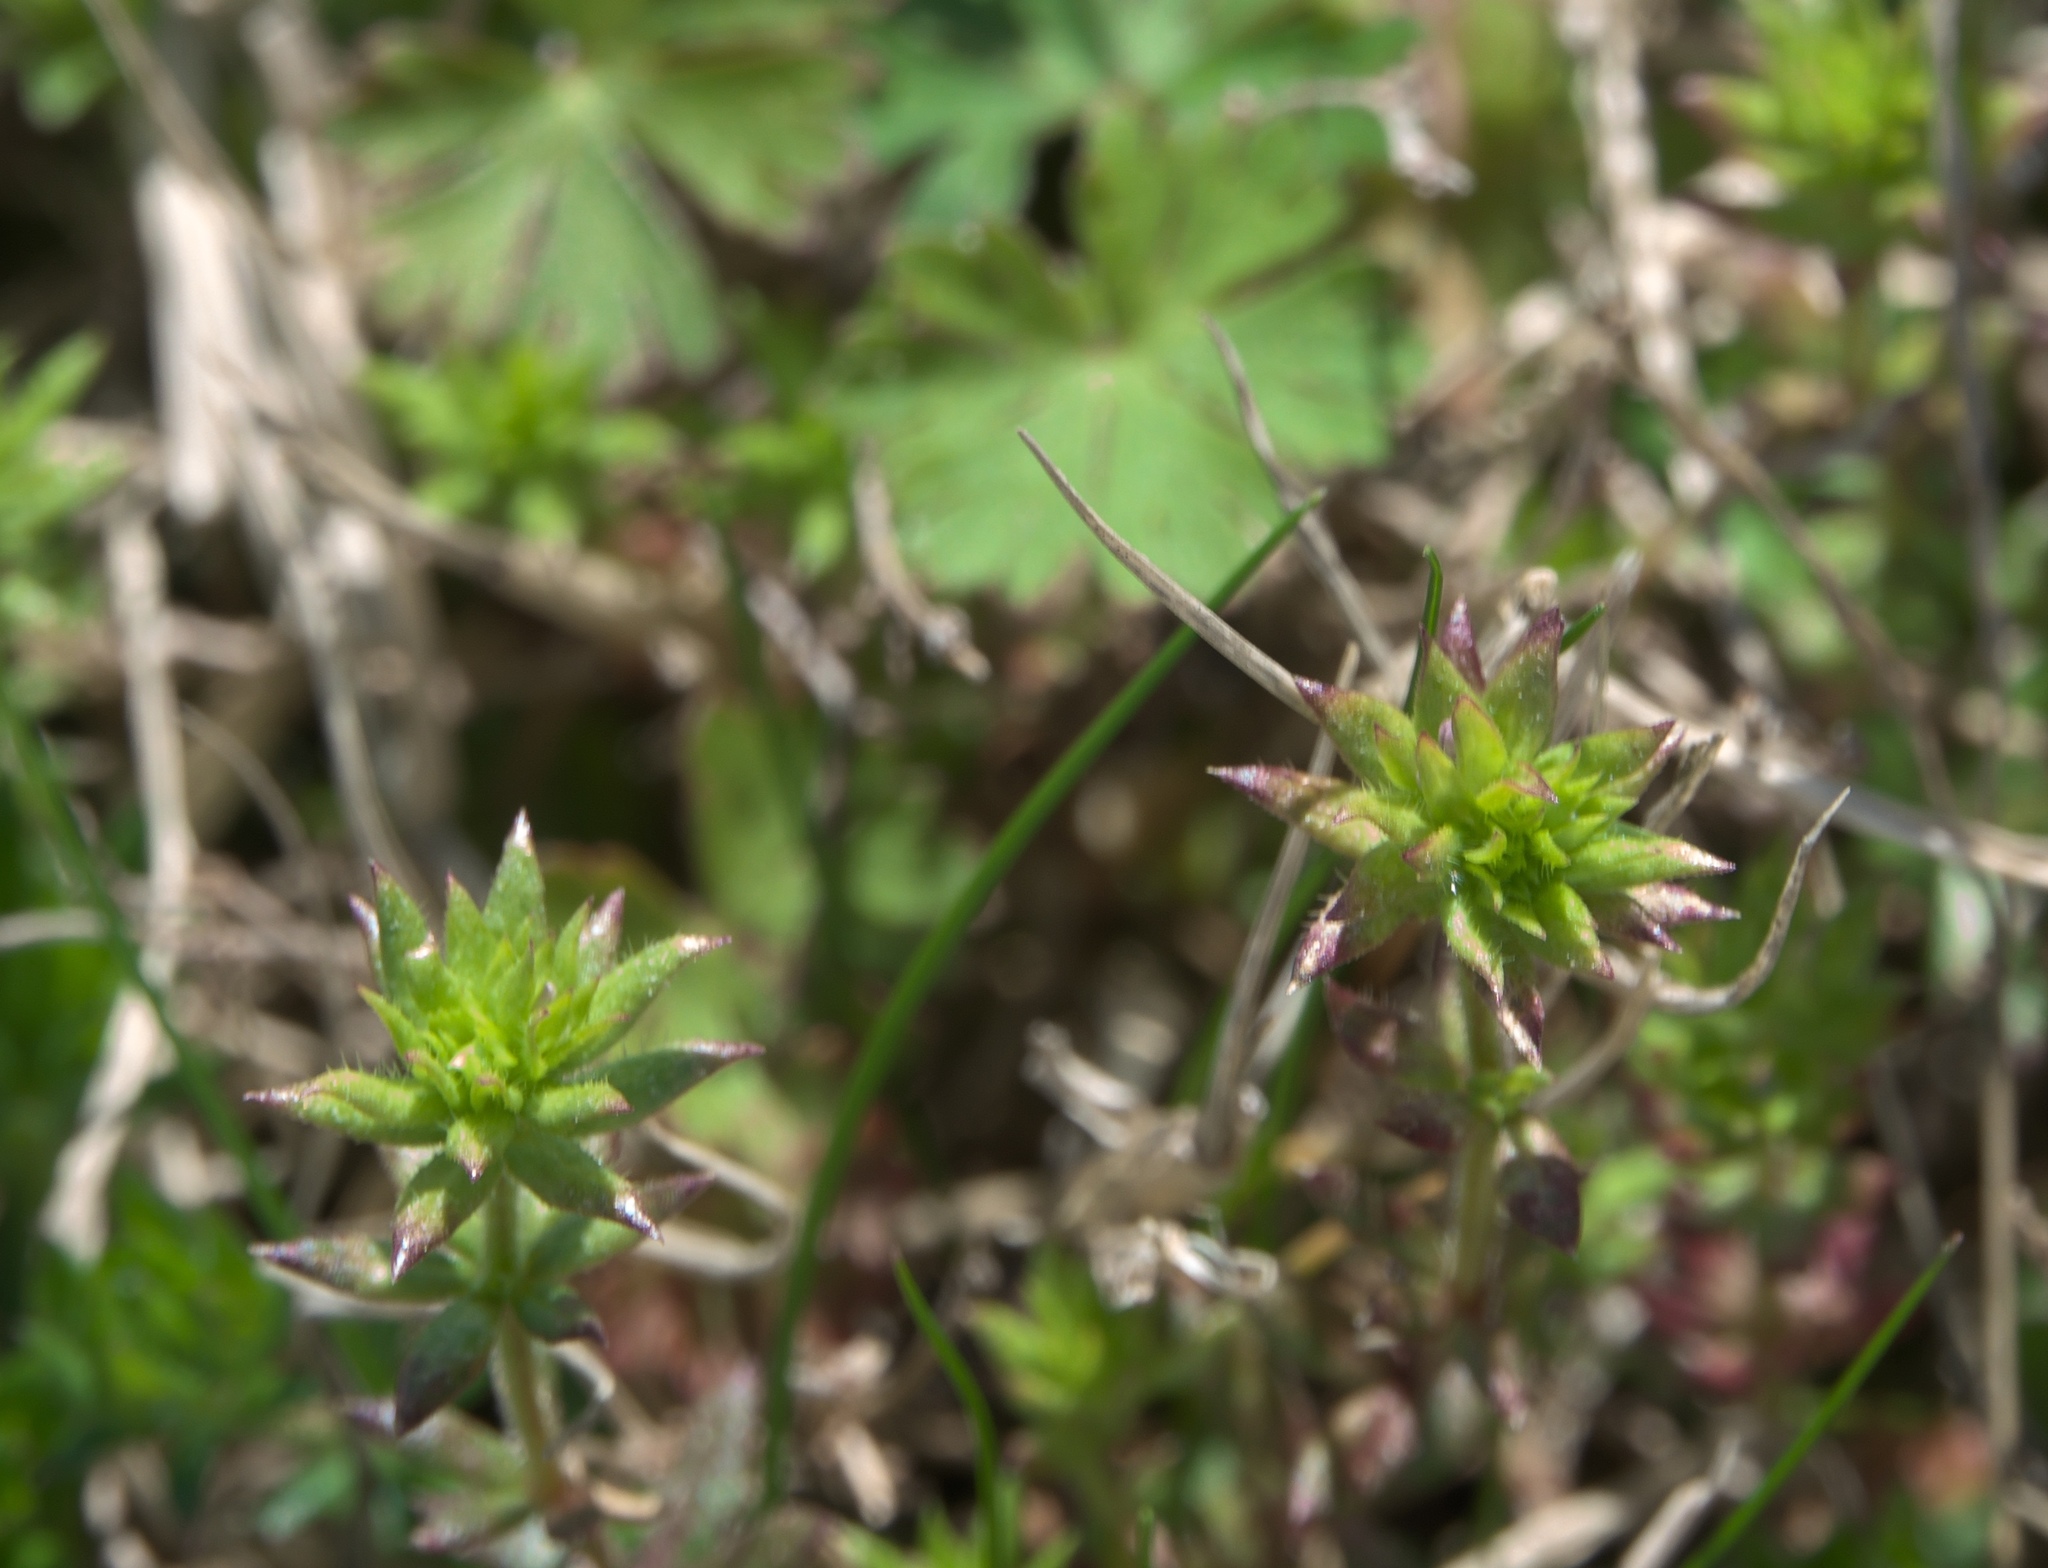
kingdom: Plantae
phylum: Tracheophyta
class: Magnoliopsida
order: Gentianales
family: Rubiaceae
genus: Sherardia
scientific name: Sherardia arvensis
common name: Field madder
